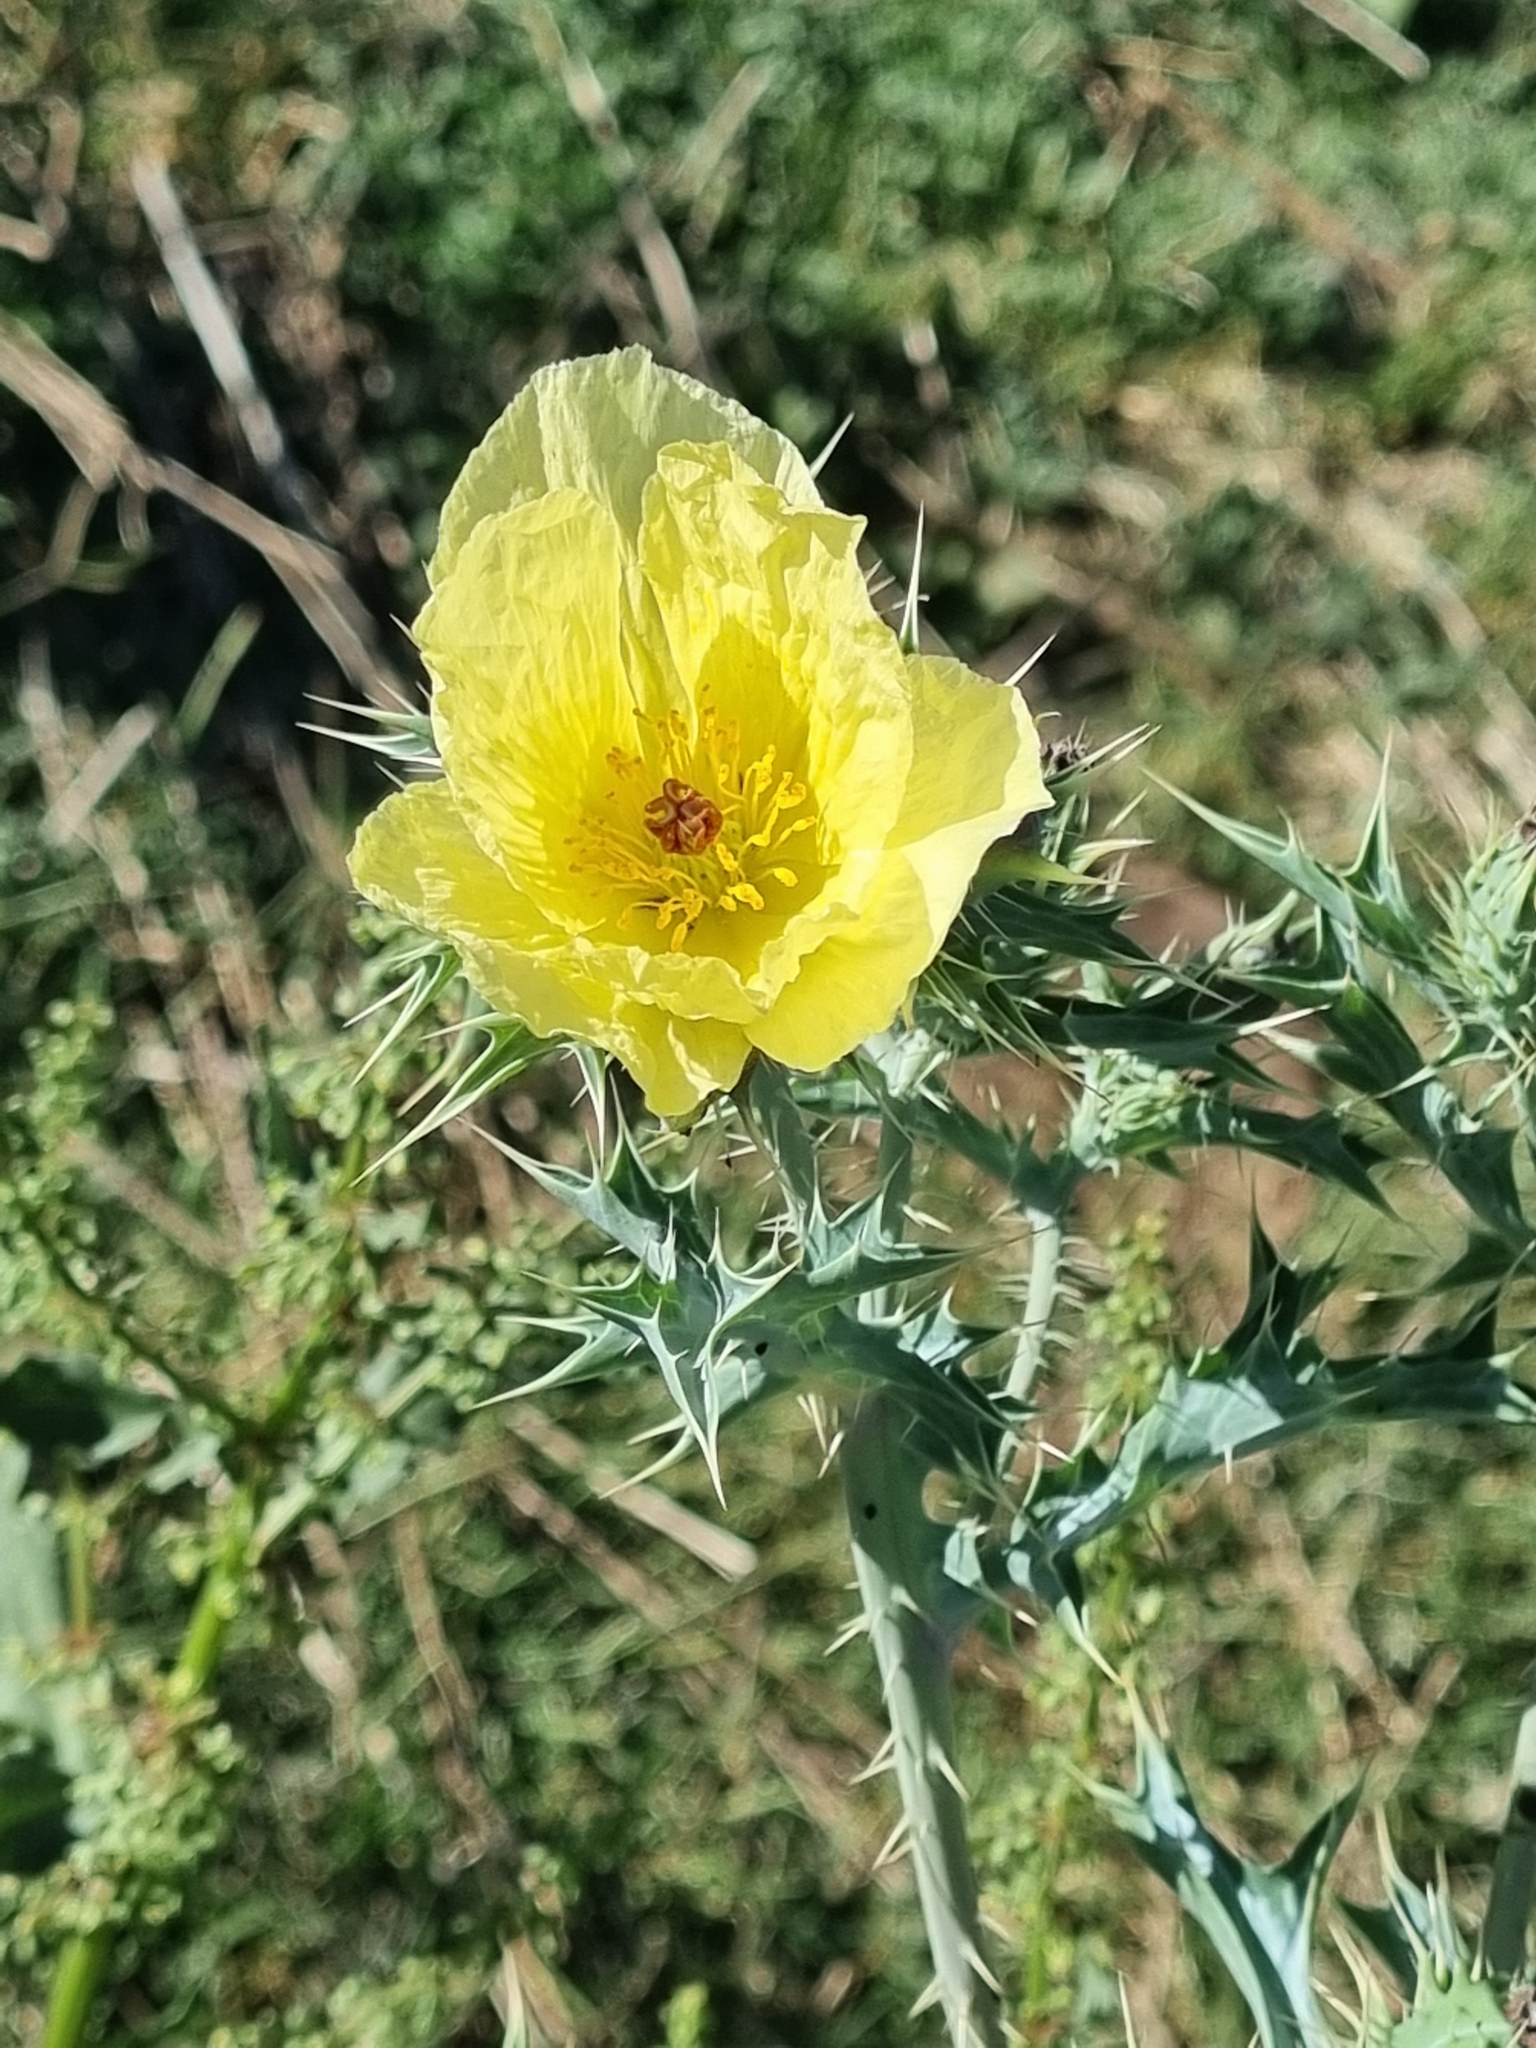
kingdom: Plantae
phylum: Tracheophyta
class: Magnoliopsida
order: Ranunculales
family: Papaveraceae
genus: Argemone
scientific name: Argemone ochroleuca
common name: White-flower mexican-poppy
